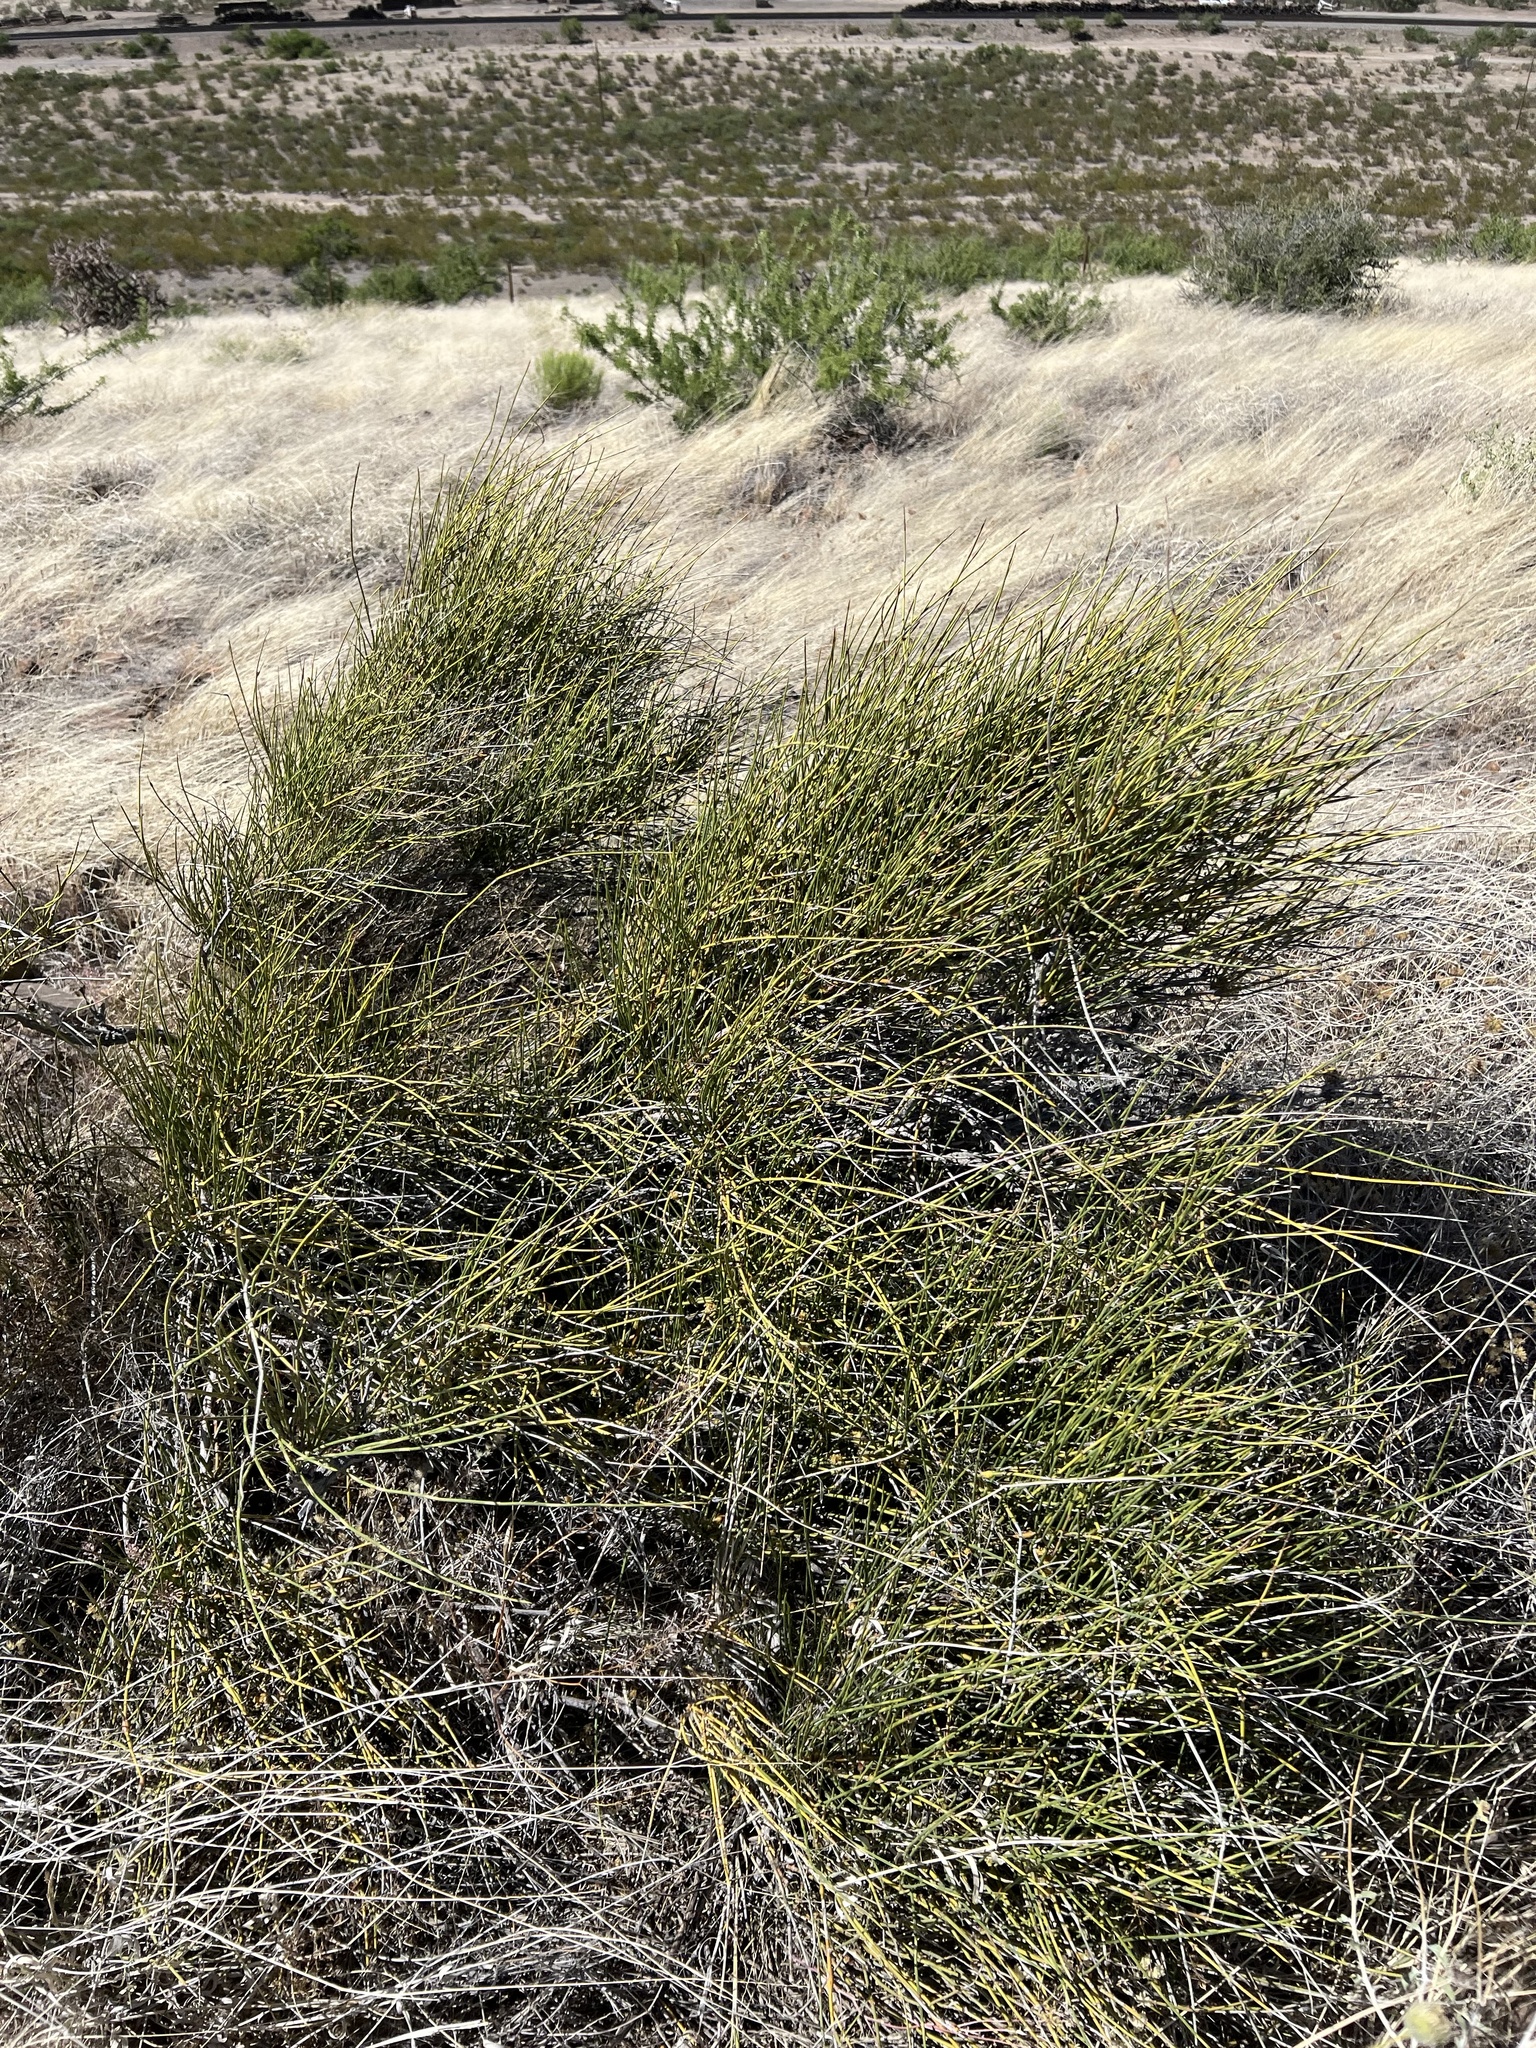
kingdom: Plantae
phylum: Tracheophyta
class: Gnetopsida
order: Ephedrales
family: Ephedraceae
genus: Ephedra
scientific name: Ephedra trifurca
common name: Mexican-tea
